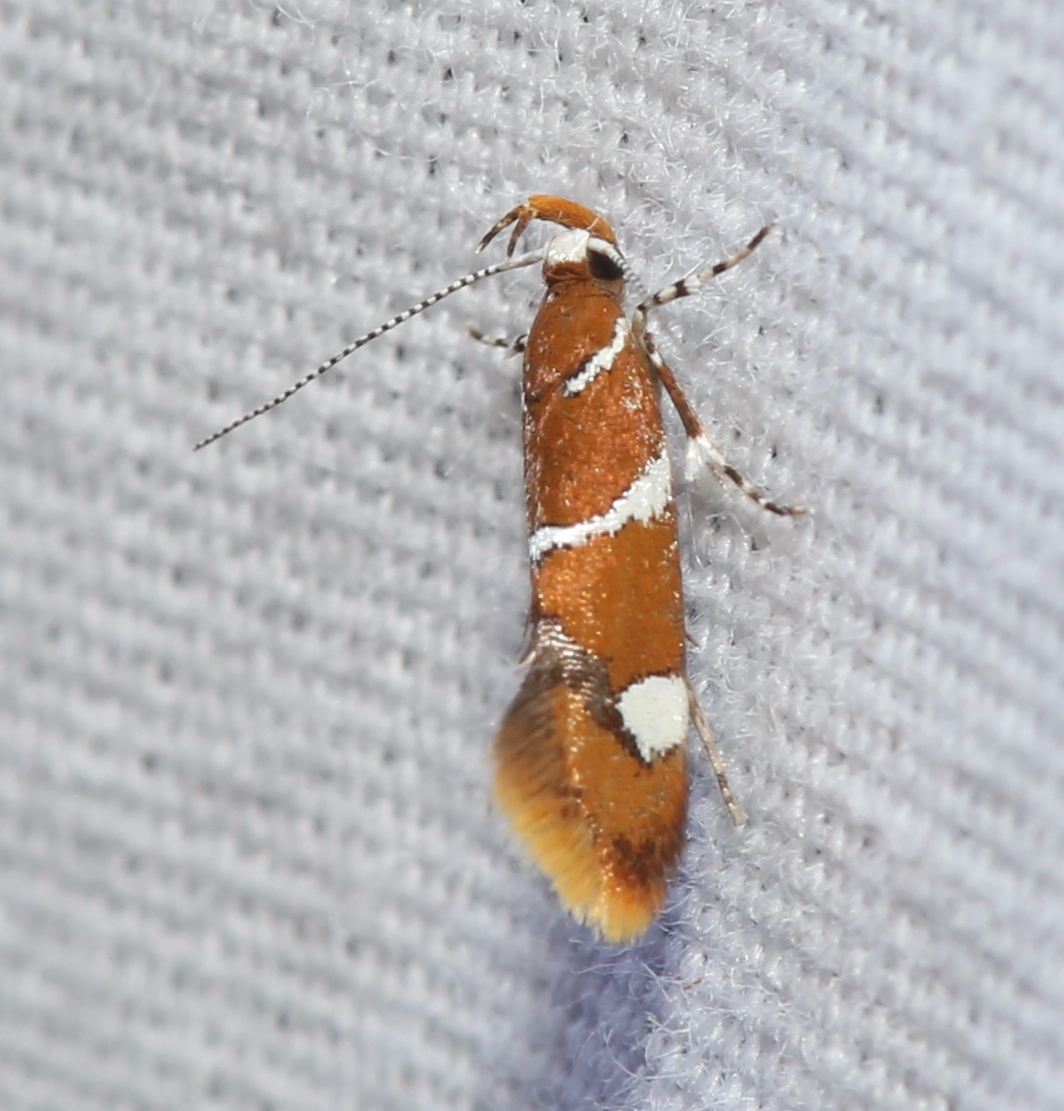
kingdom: Animalia
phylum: Arthropoda
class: Insecta
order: Lepidoptera
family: Oecophoridae
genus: Promalactis
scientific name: Promalactis suzukiella
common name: Moth
